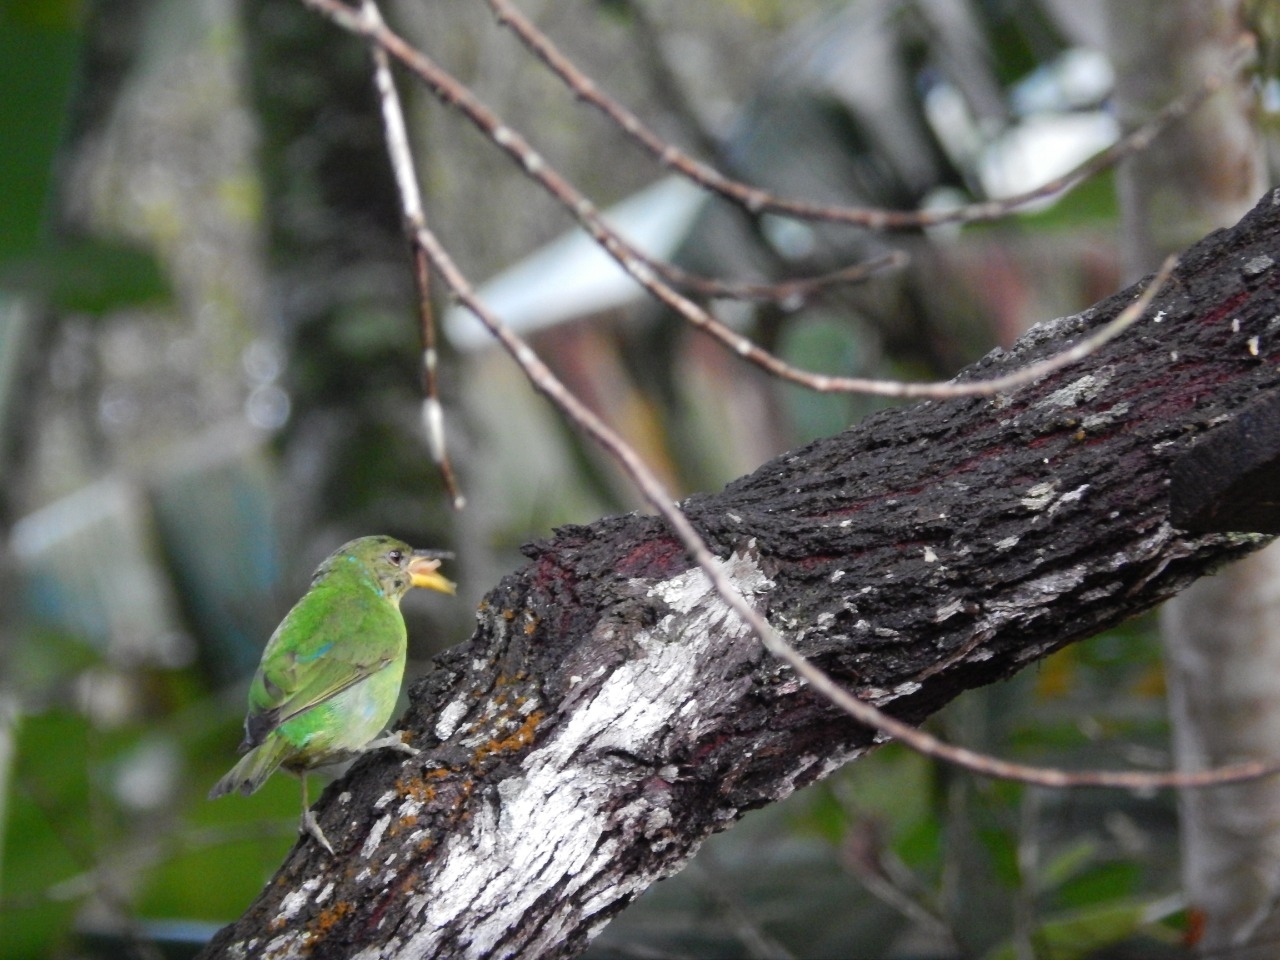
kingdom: Animalia
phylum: Chordata
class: Aves
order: Passeriformes
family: Thraupidae
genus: Chlorophanes
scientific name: Chlorophanes spiza
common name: Green honeycreeper
